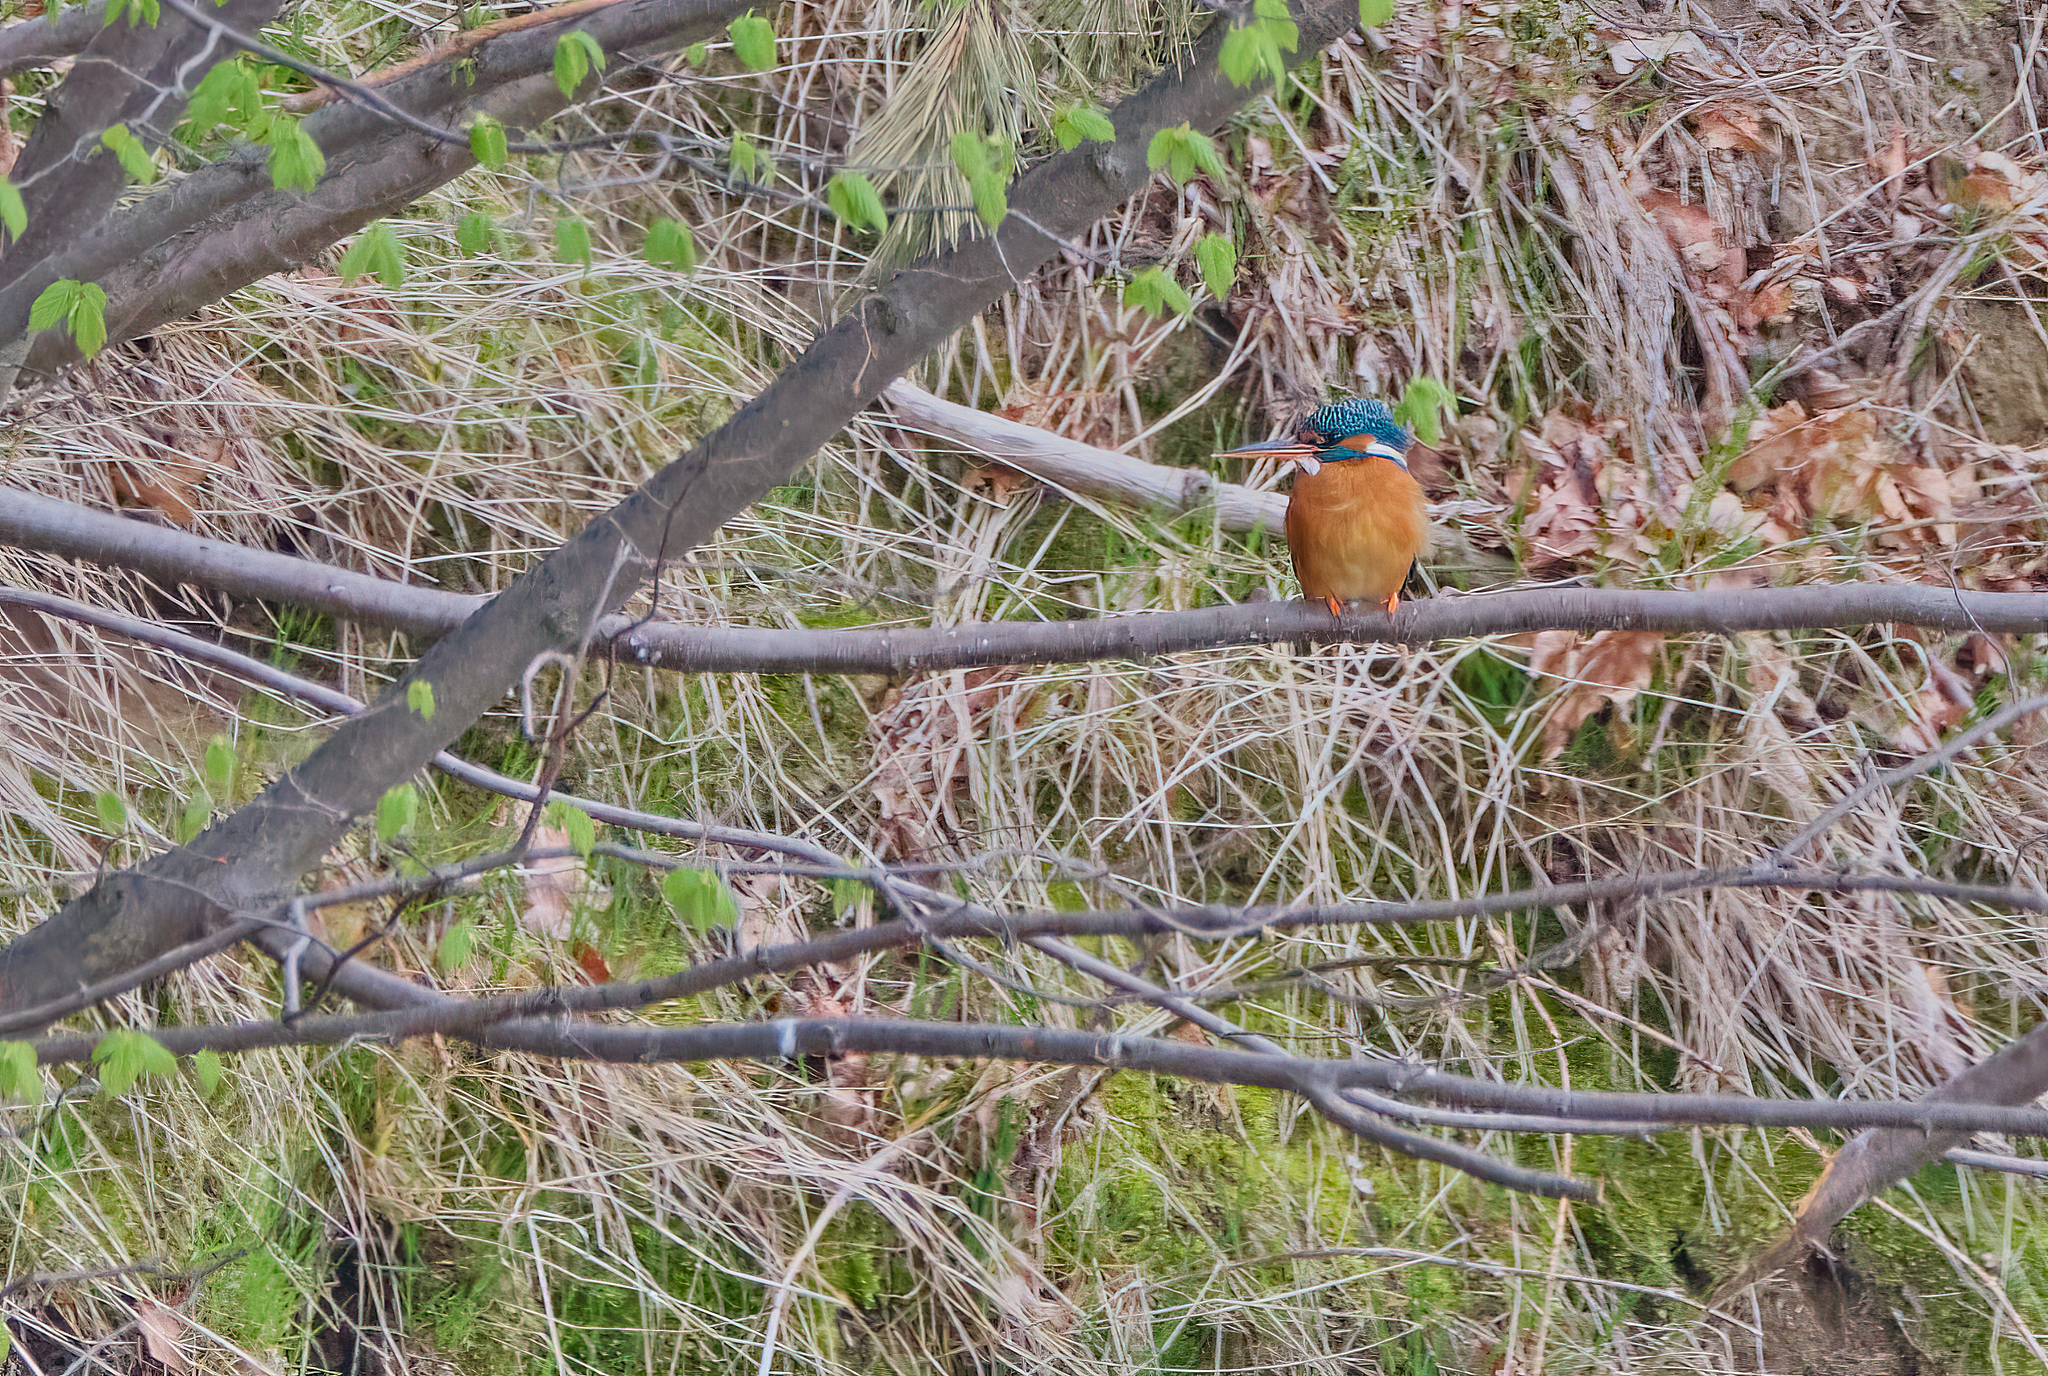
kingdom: Animalia
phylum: Chordata
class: Aves
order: Coraciiformes
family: Alcedinidae
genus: Alcedo
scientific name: Alcedo atthis
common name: Common kingfisher
